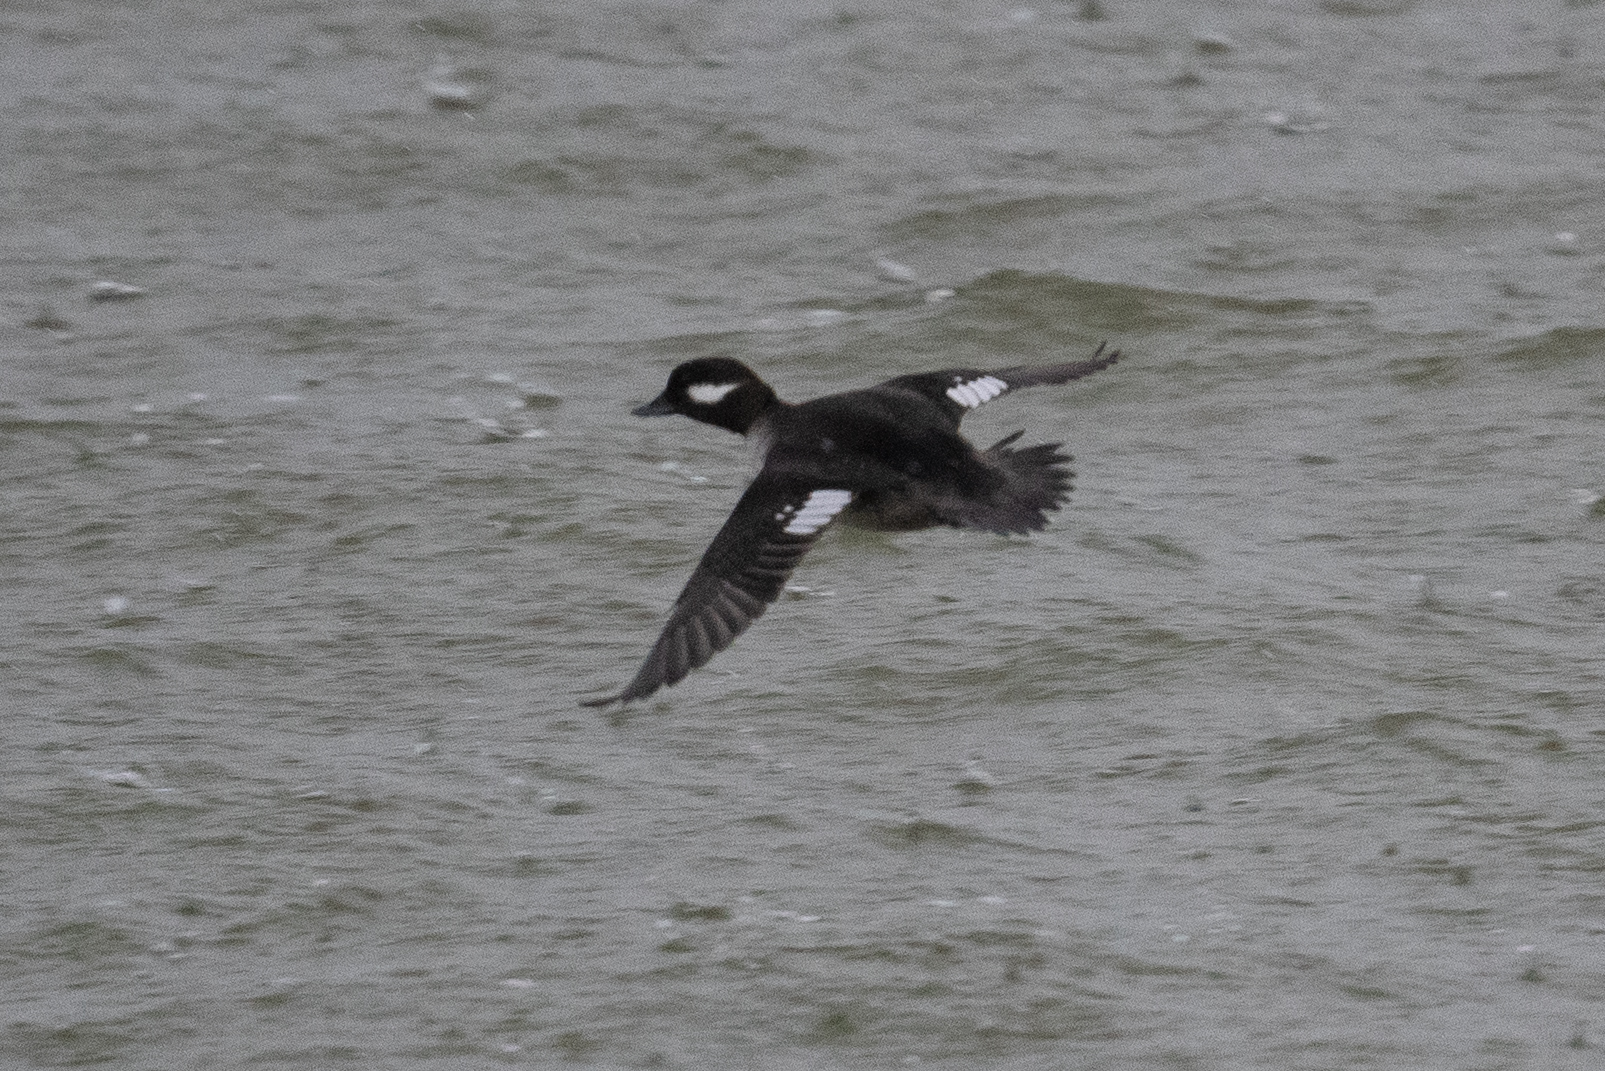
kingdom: Animalia
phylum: Chordata
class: Aves
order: Anseriformes
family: Anatidae
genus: Bucephala
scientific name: Bucephala albeola
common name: Bufflehead
